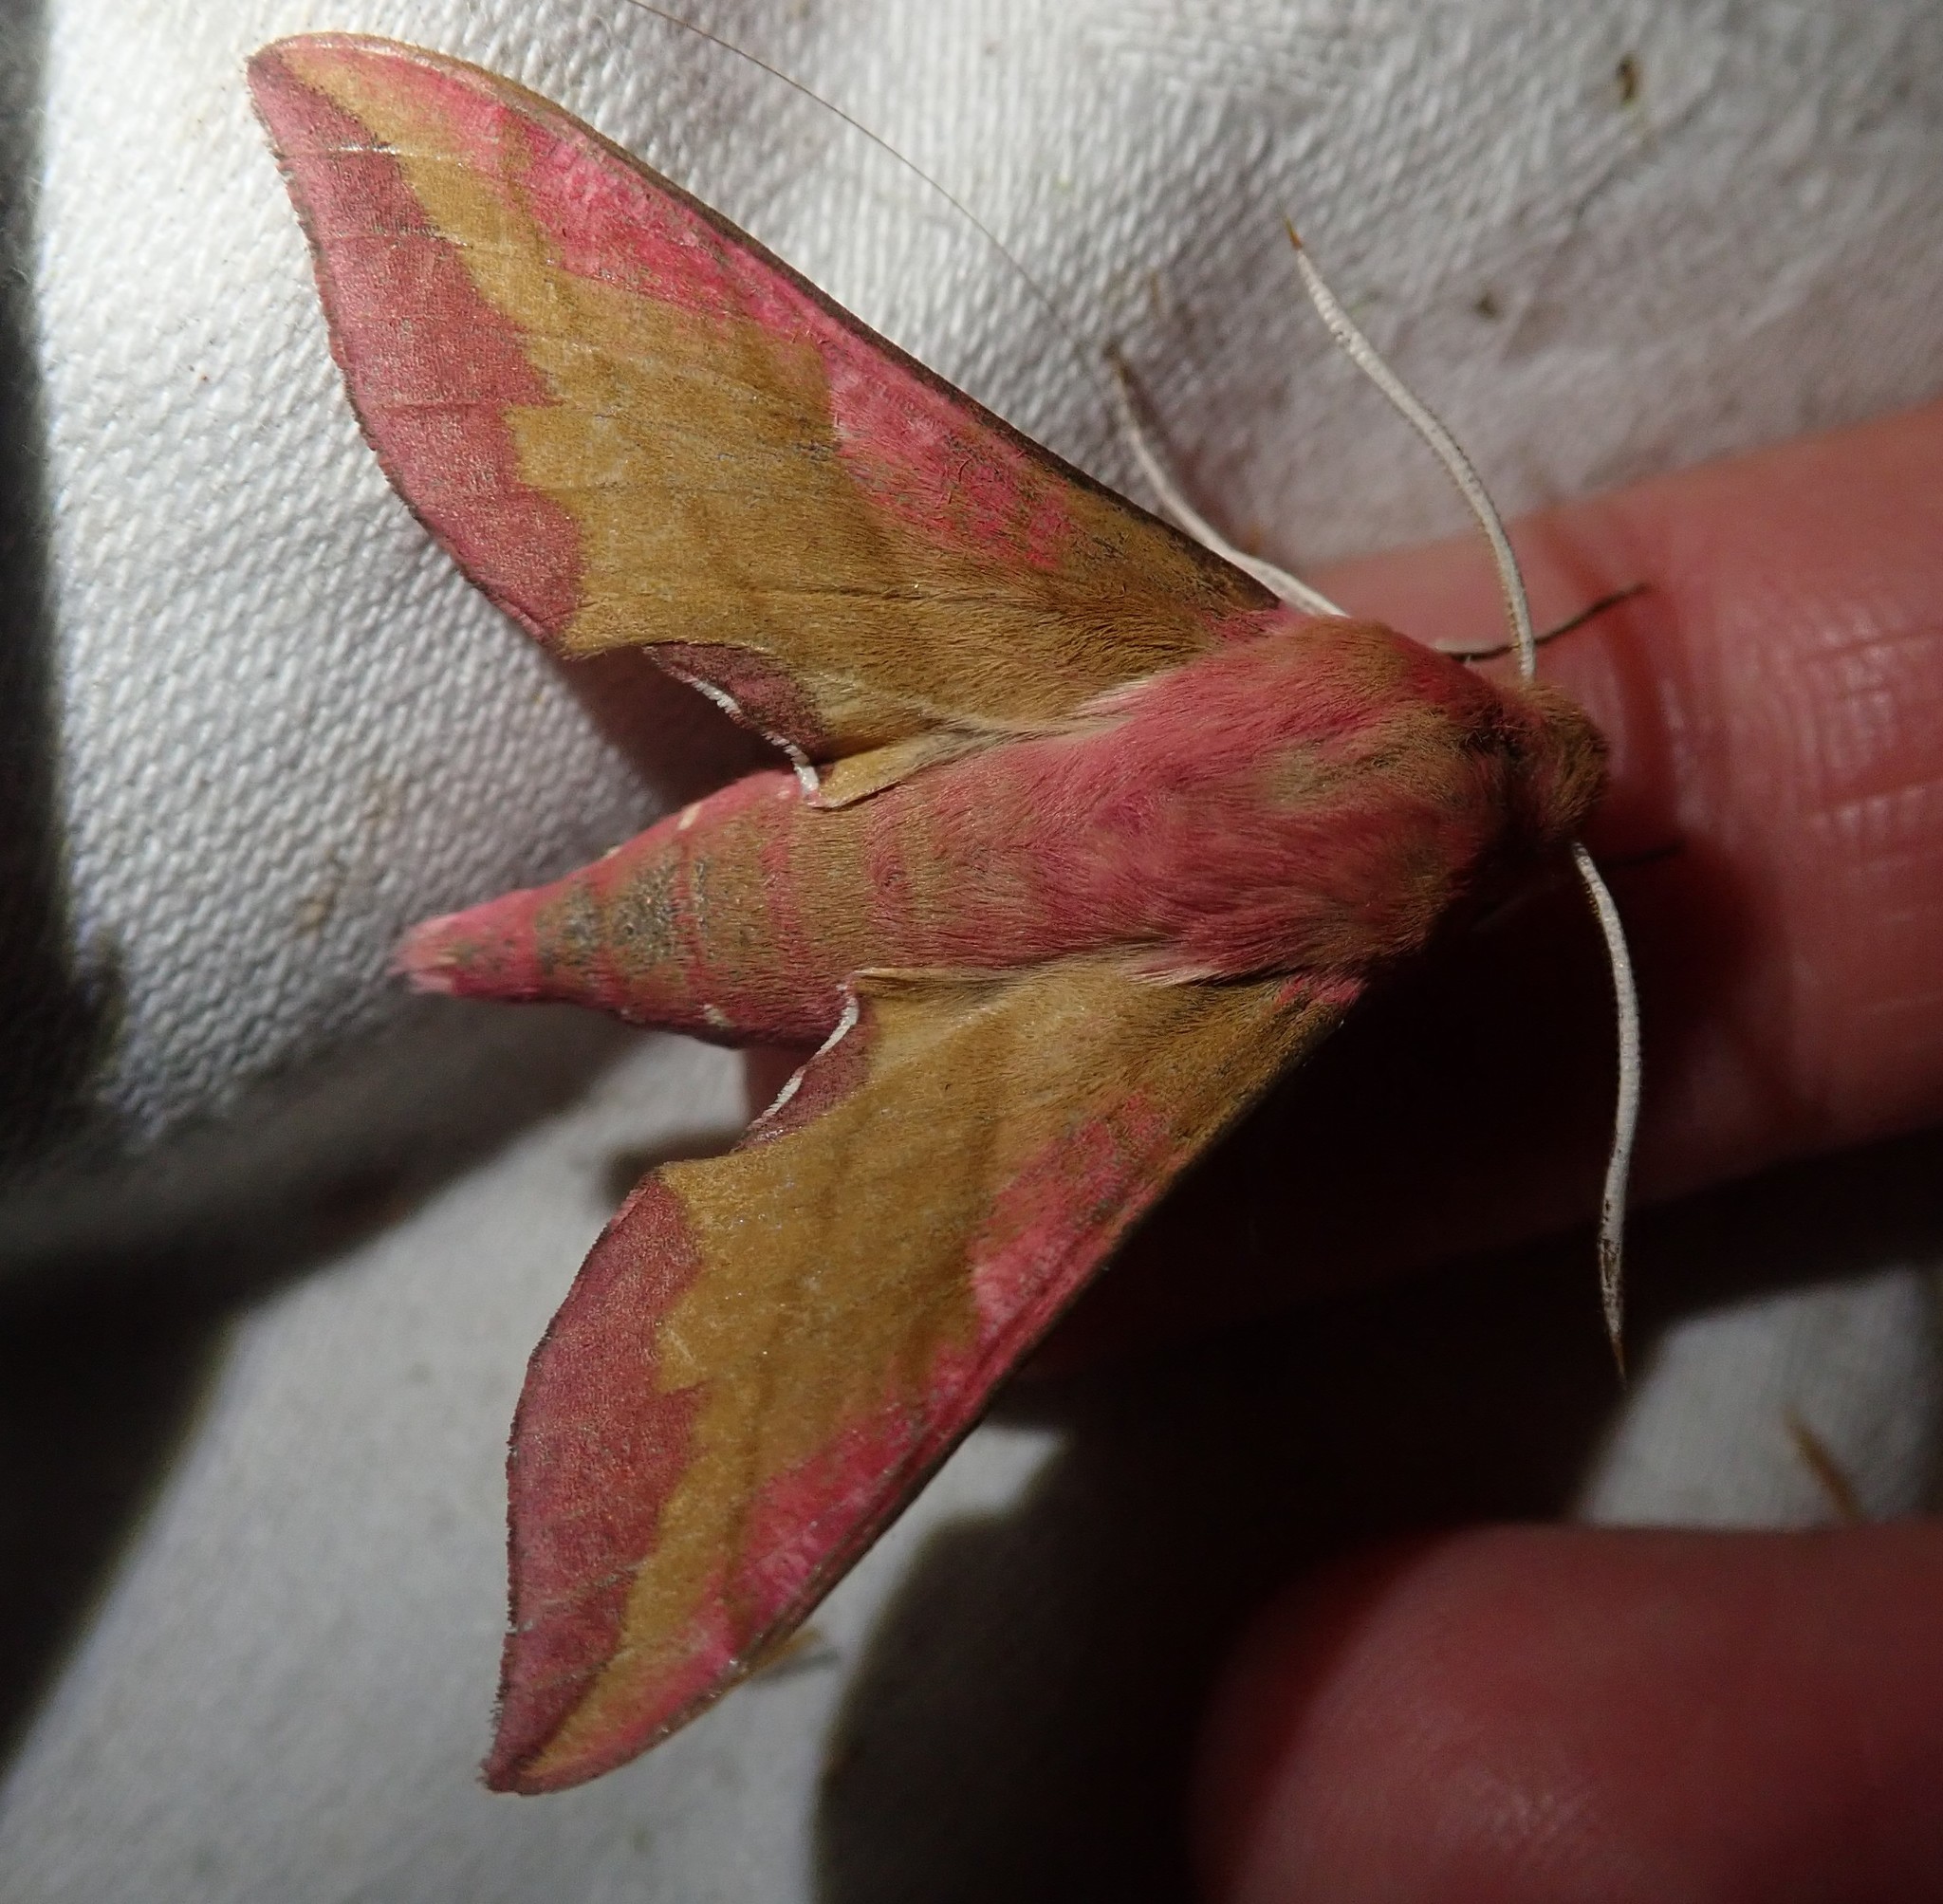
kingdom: Animalia
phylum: Arthropoda
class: Insecta
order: Lepidoptera
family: Sphingidae
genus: Deilephila
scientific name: Deilephila porcellus
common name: Small elephant hawk-moth
